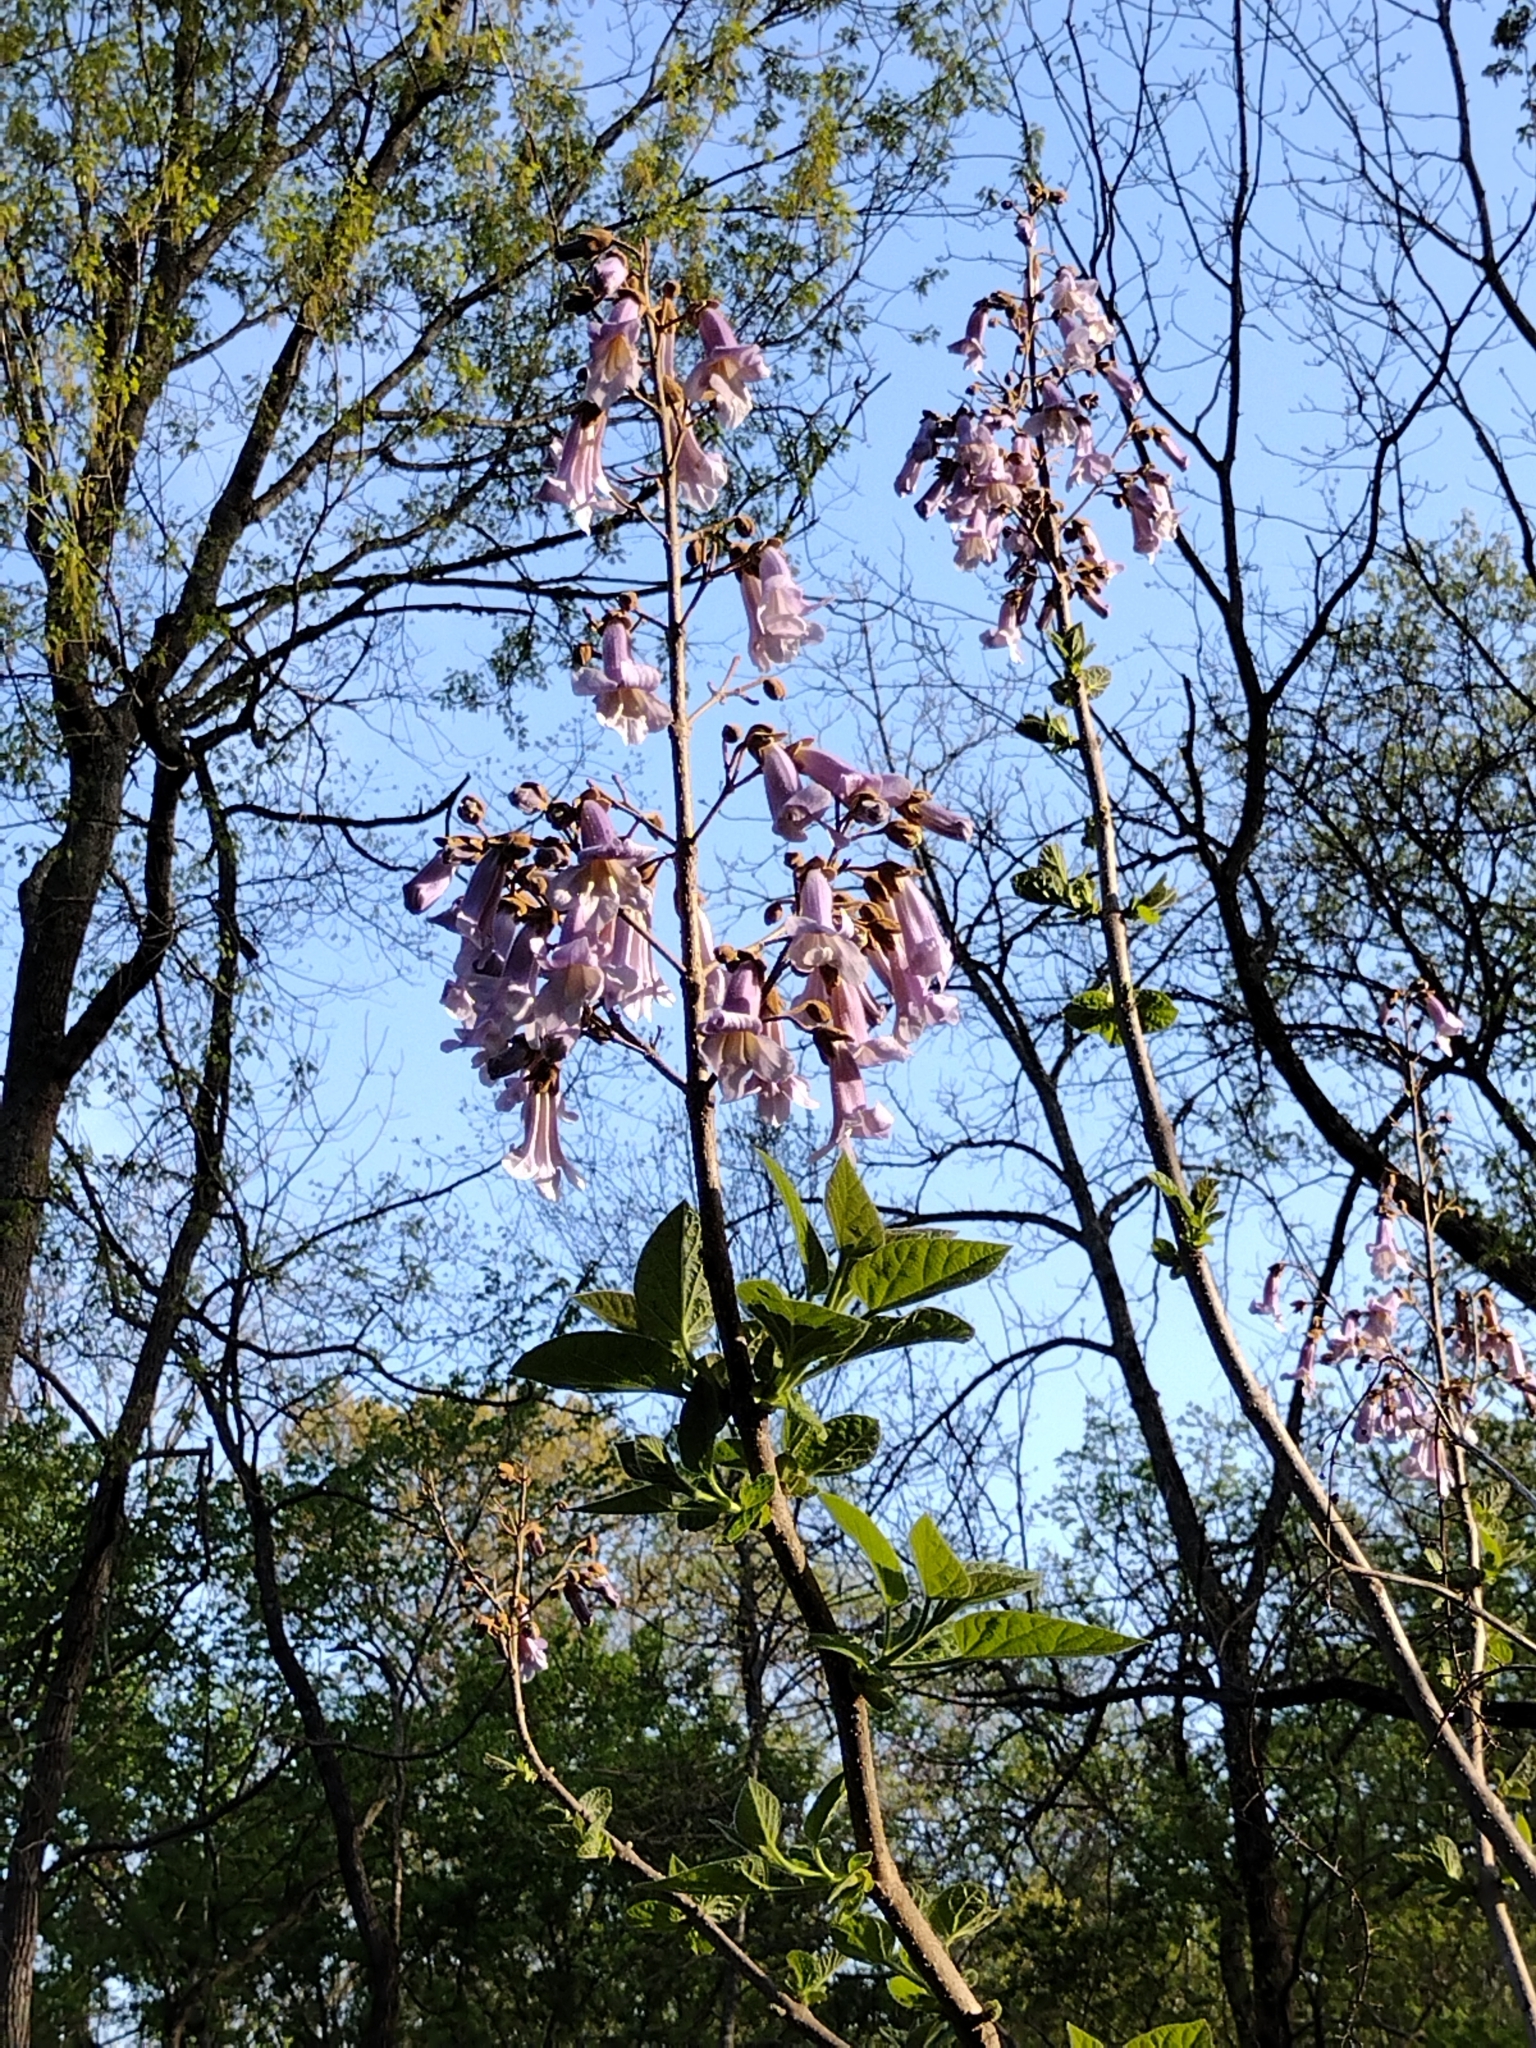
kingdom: Plantae
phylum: Tracheophyta
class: Magnoliopsida
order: Lamiales
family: Paulowniaceae
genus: Paulownia
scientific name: Paulownia tomentosa
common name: Foxglove-tree
